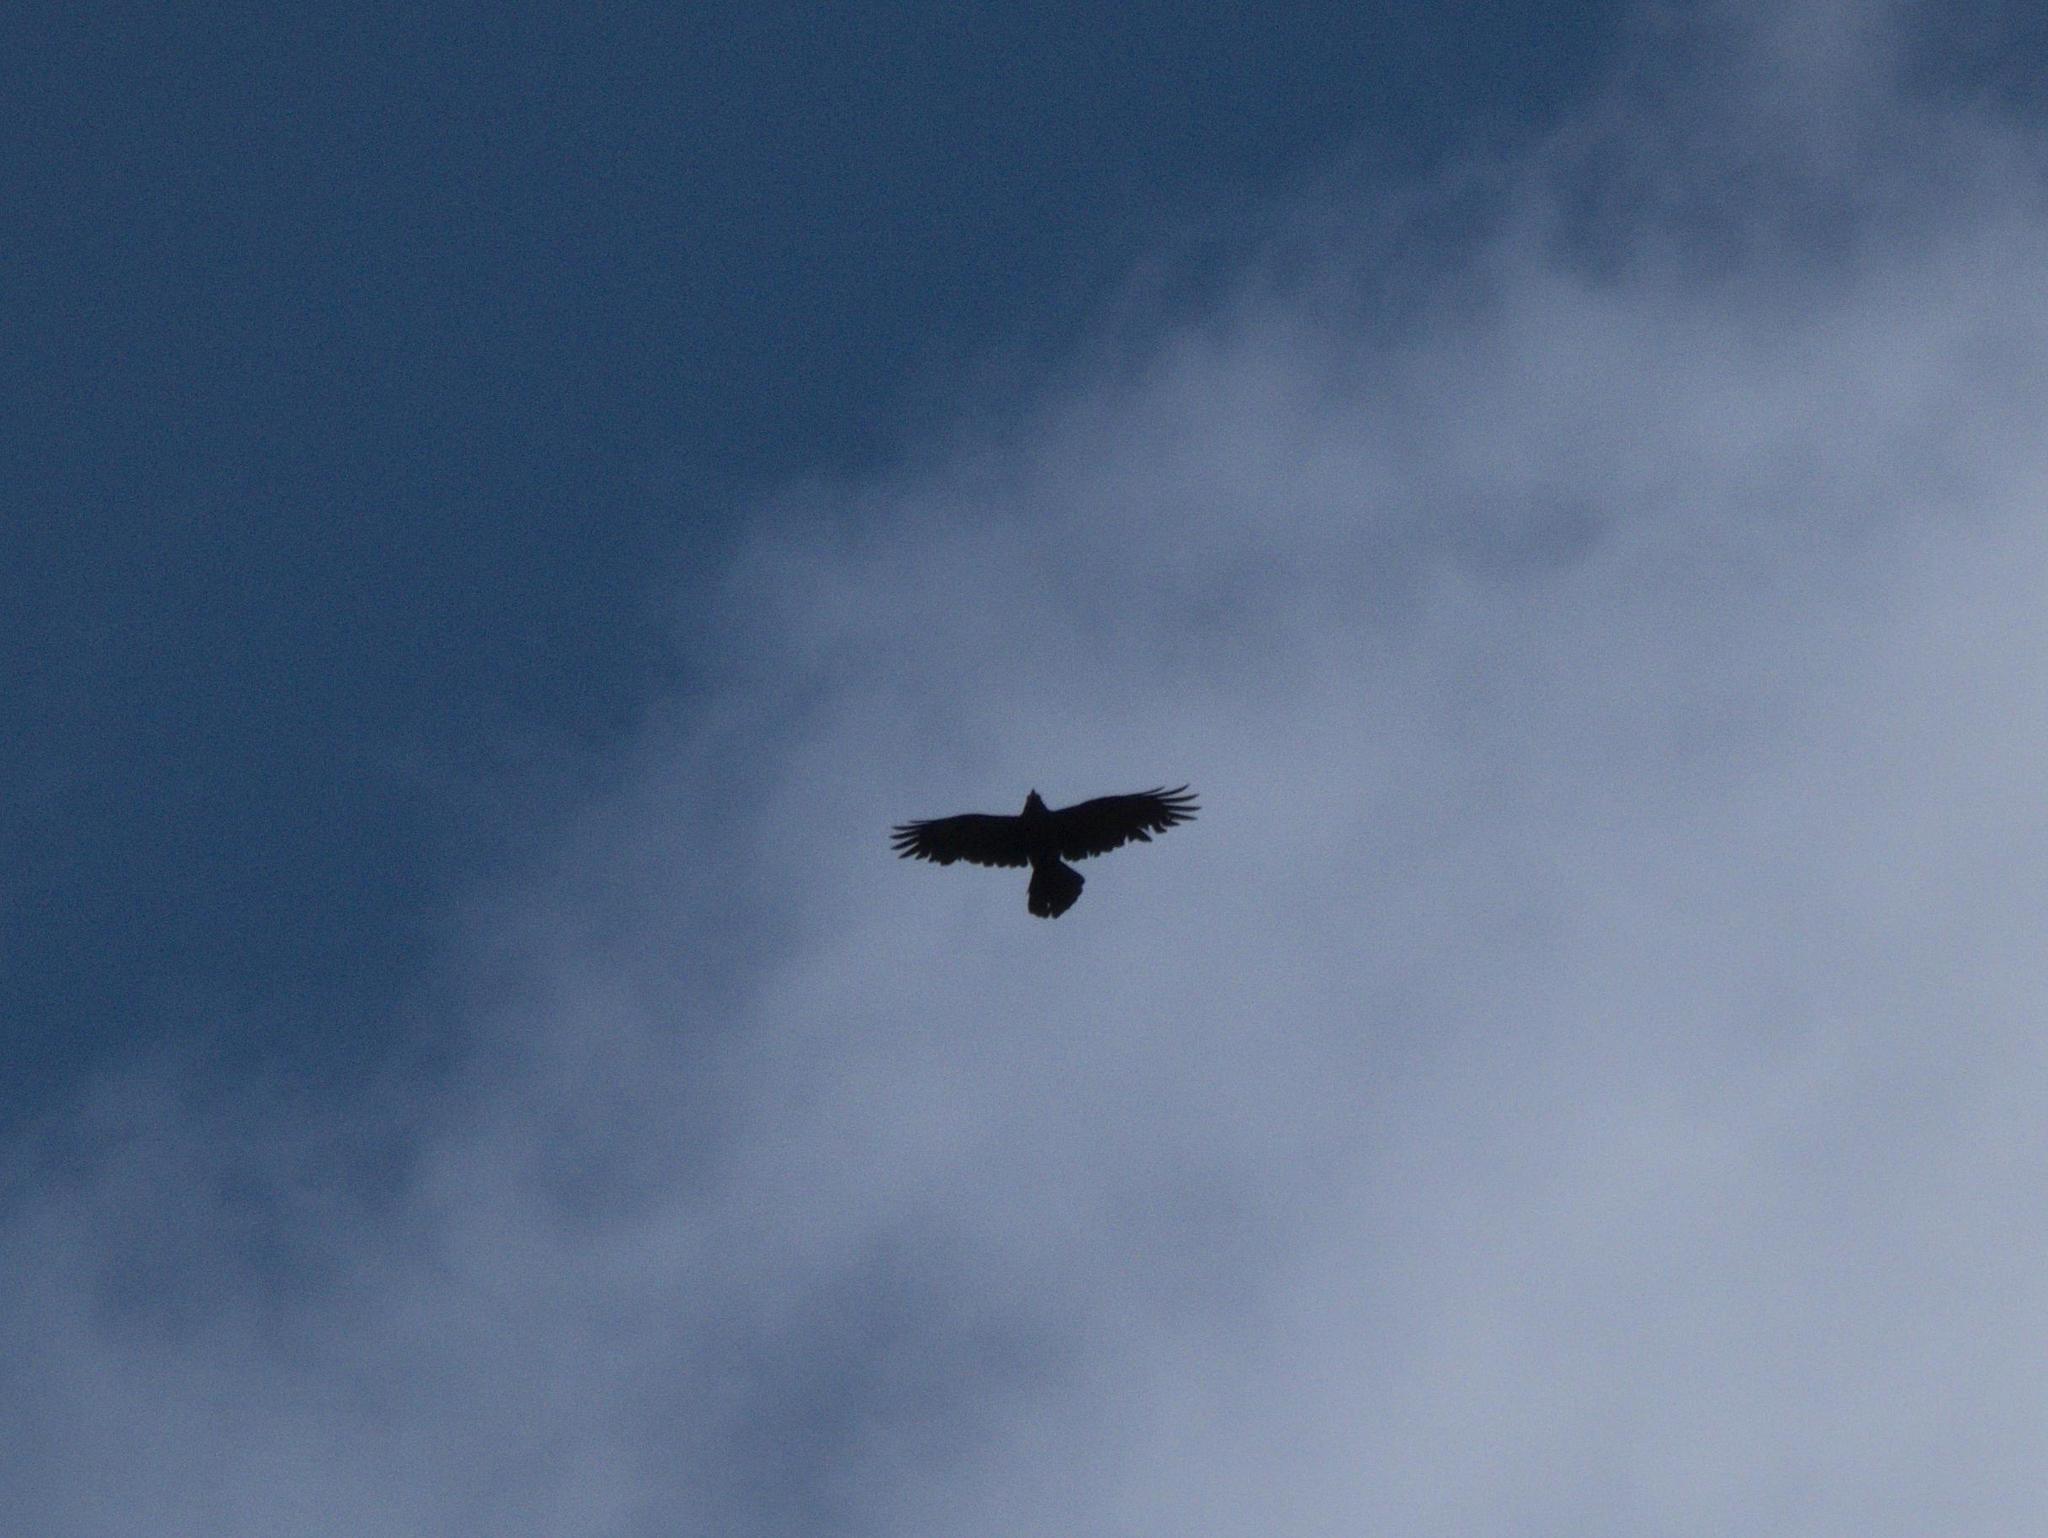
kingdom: Animalia
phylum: Chordata
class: Aves
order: Passeriformes
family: Corvidae
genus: Corvus
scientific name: Corvus corax
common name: Common raven
